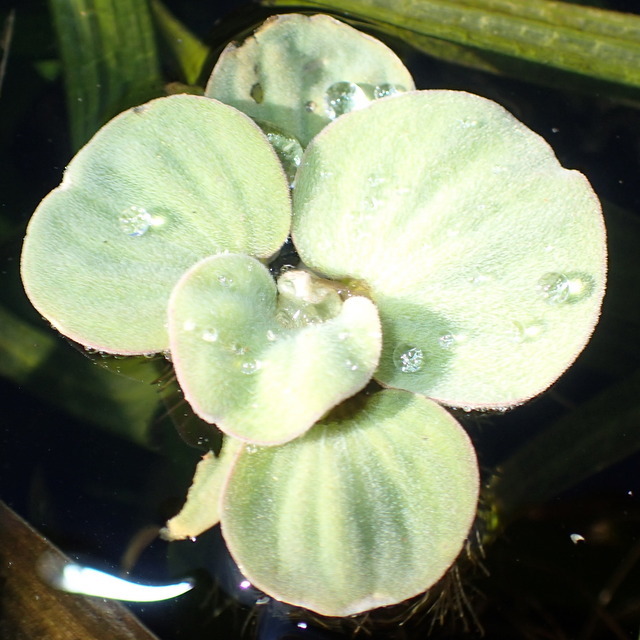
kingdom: Plantae
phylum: Tracheophyta
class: Liliopsida
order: Alismatales
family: Araceae
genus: Pistia
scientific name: Pistia stratiotes
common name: Water lettuce
